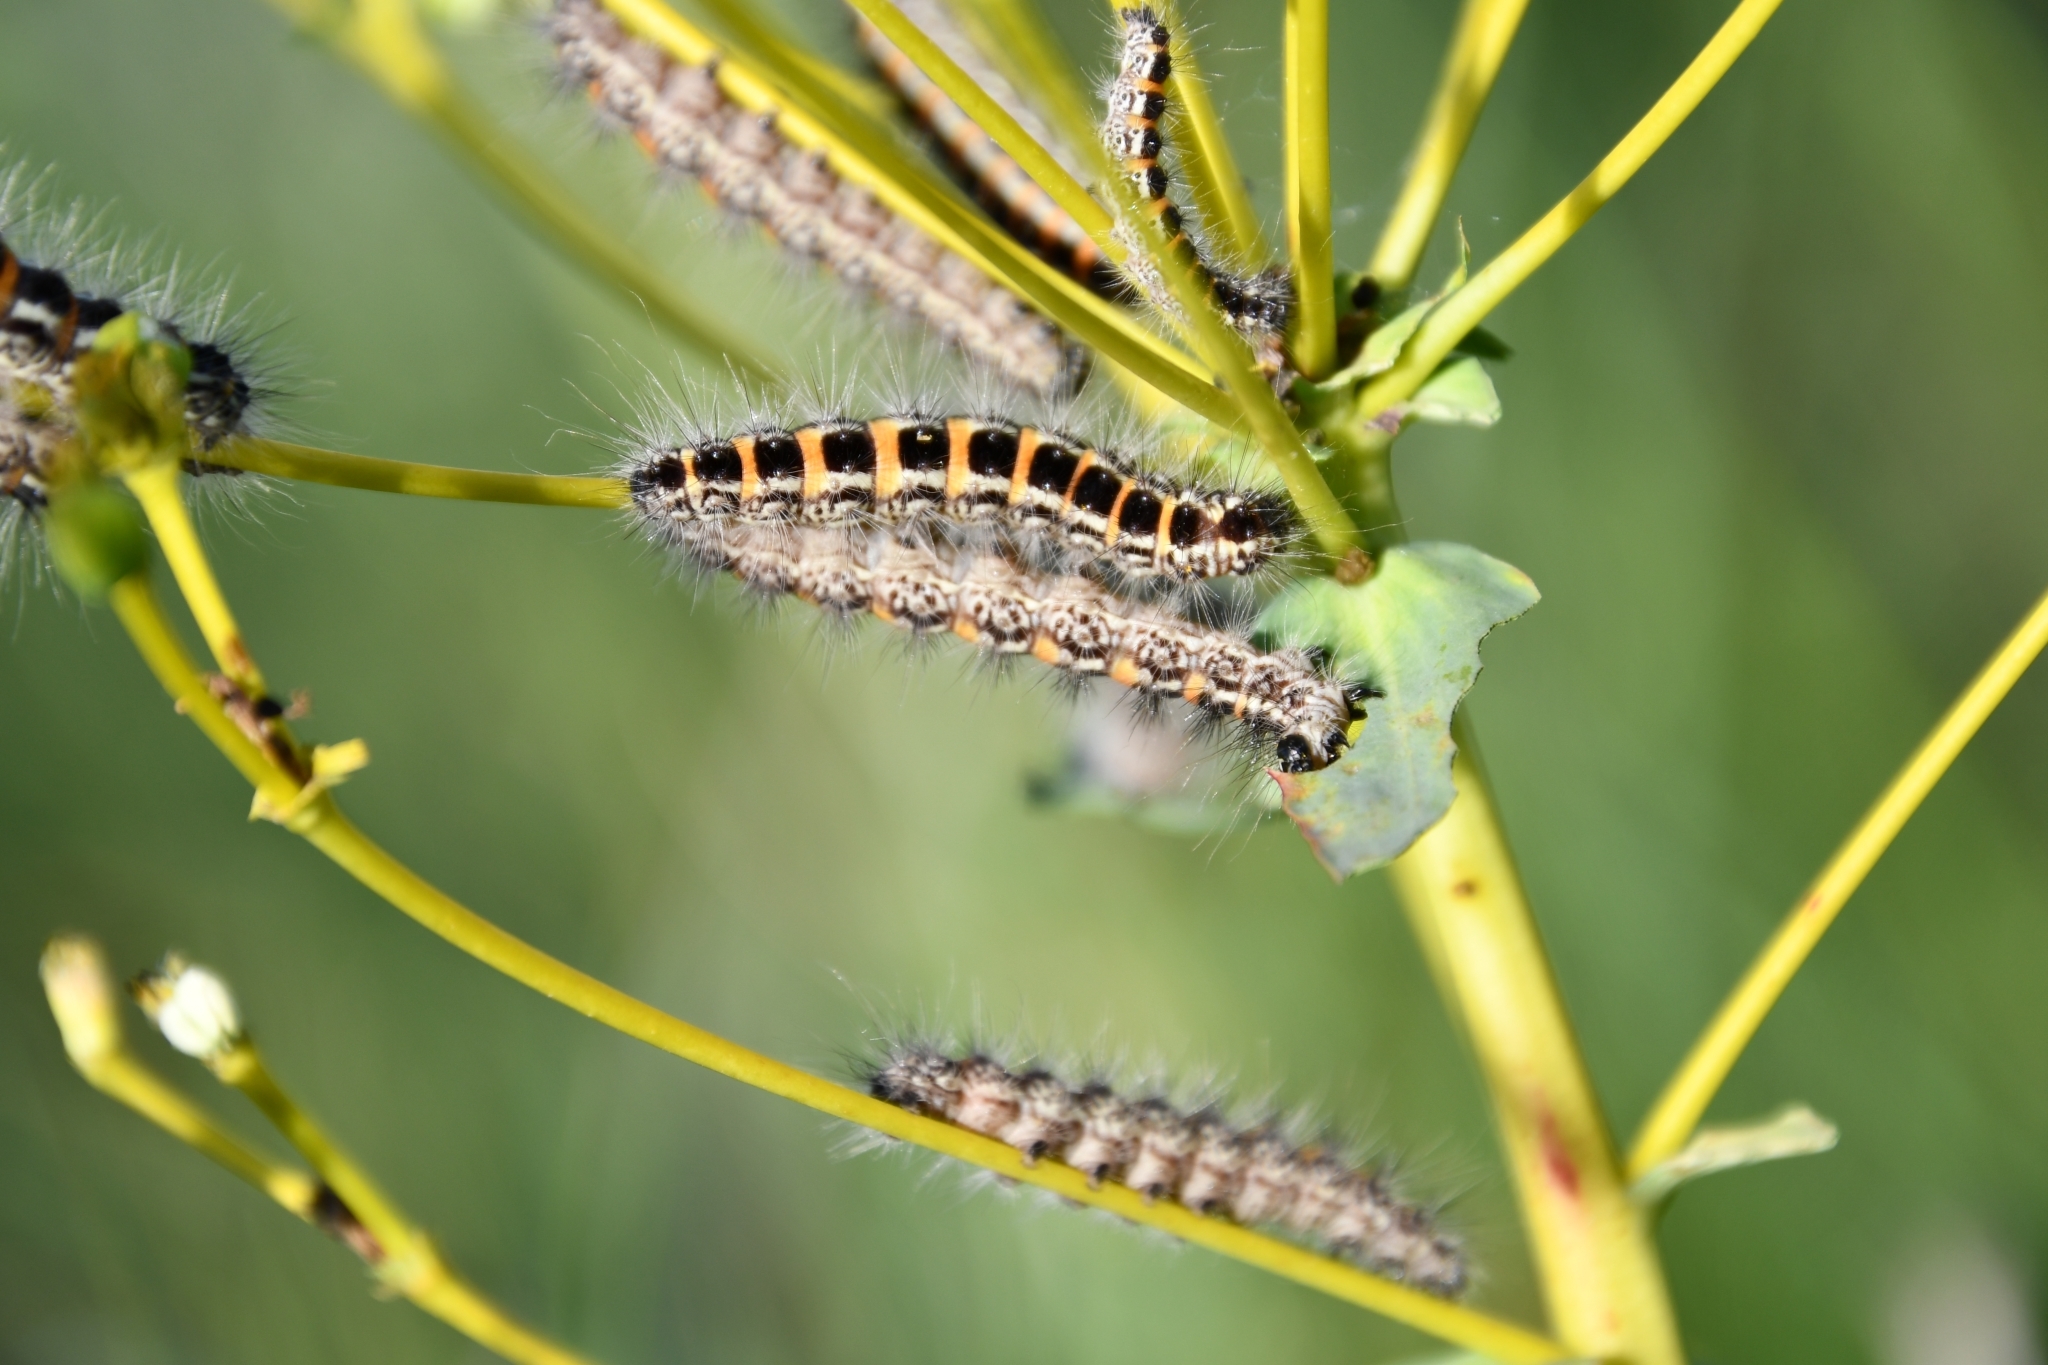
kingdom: Animalia
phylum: Arthropoda
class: Insecta
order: Lepidoptera
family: Noctuidae
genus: Oxicesta
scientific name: Oxicesta geographica
